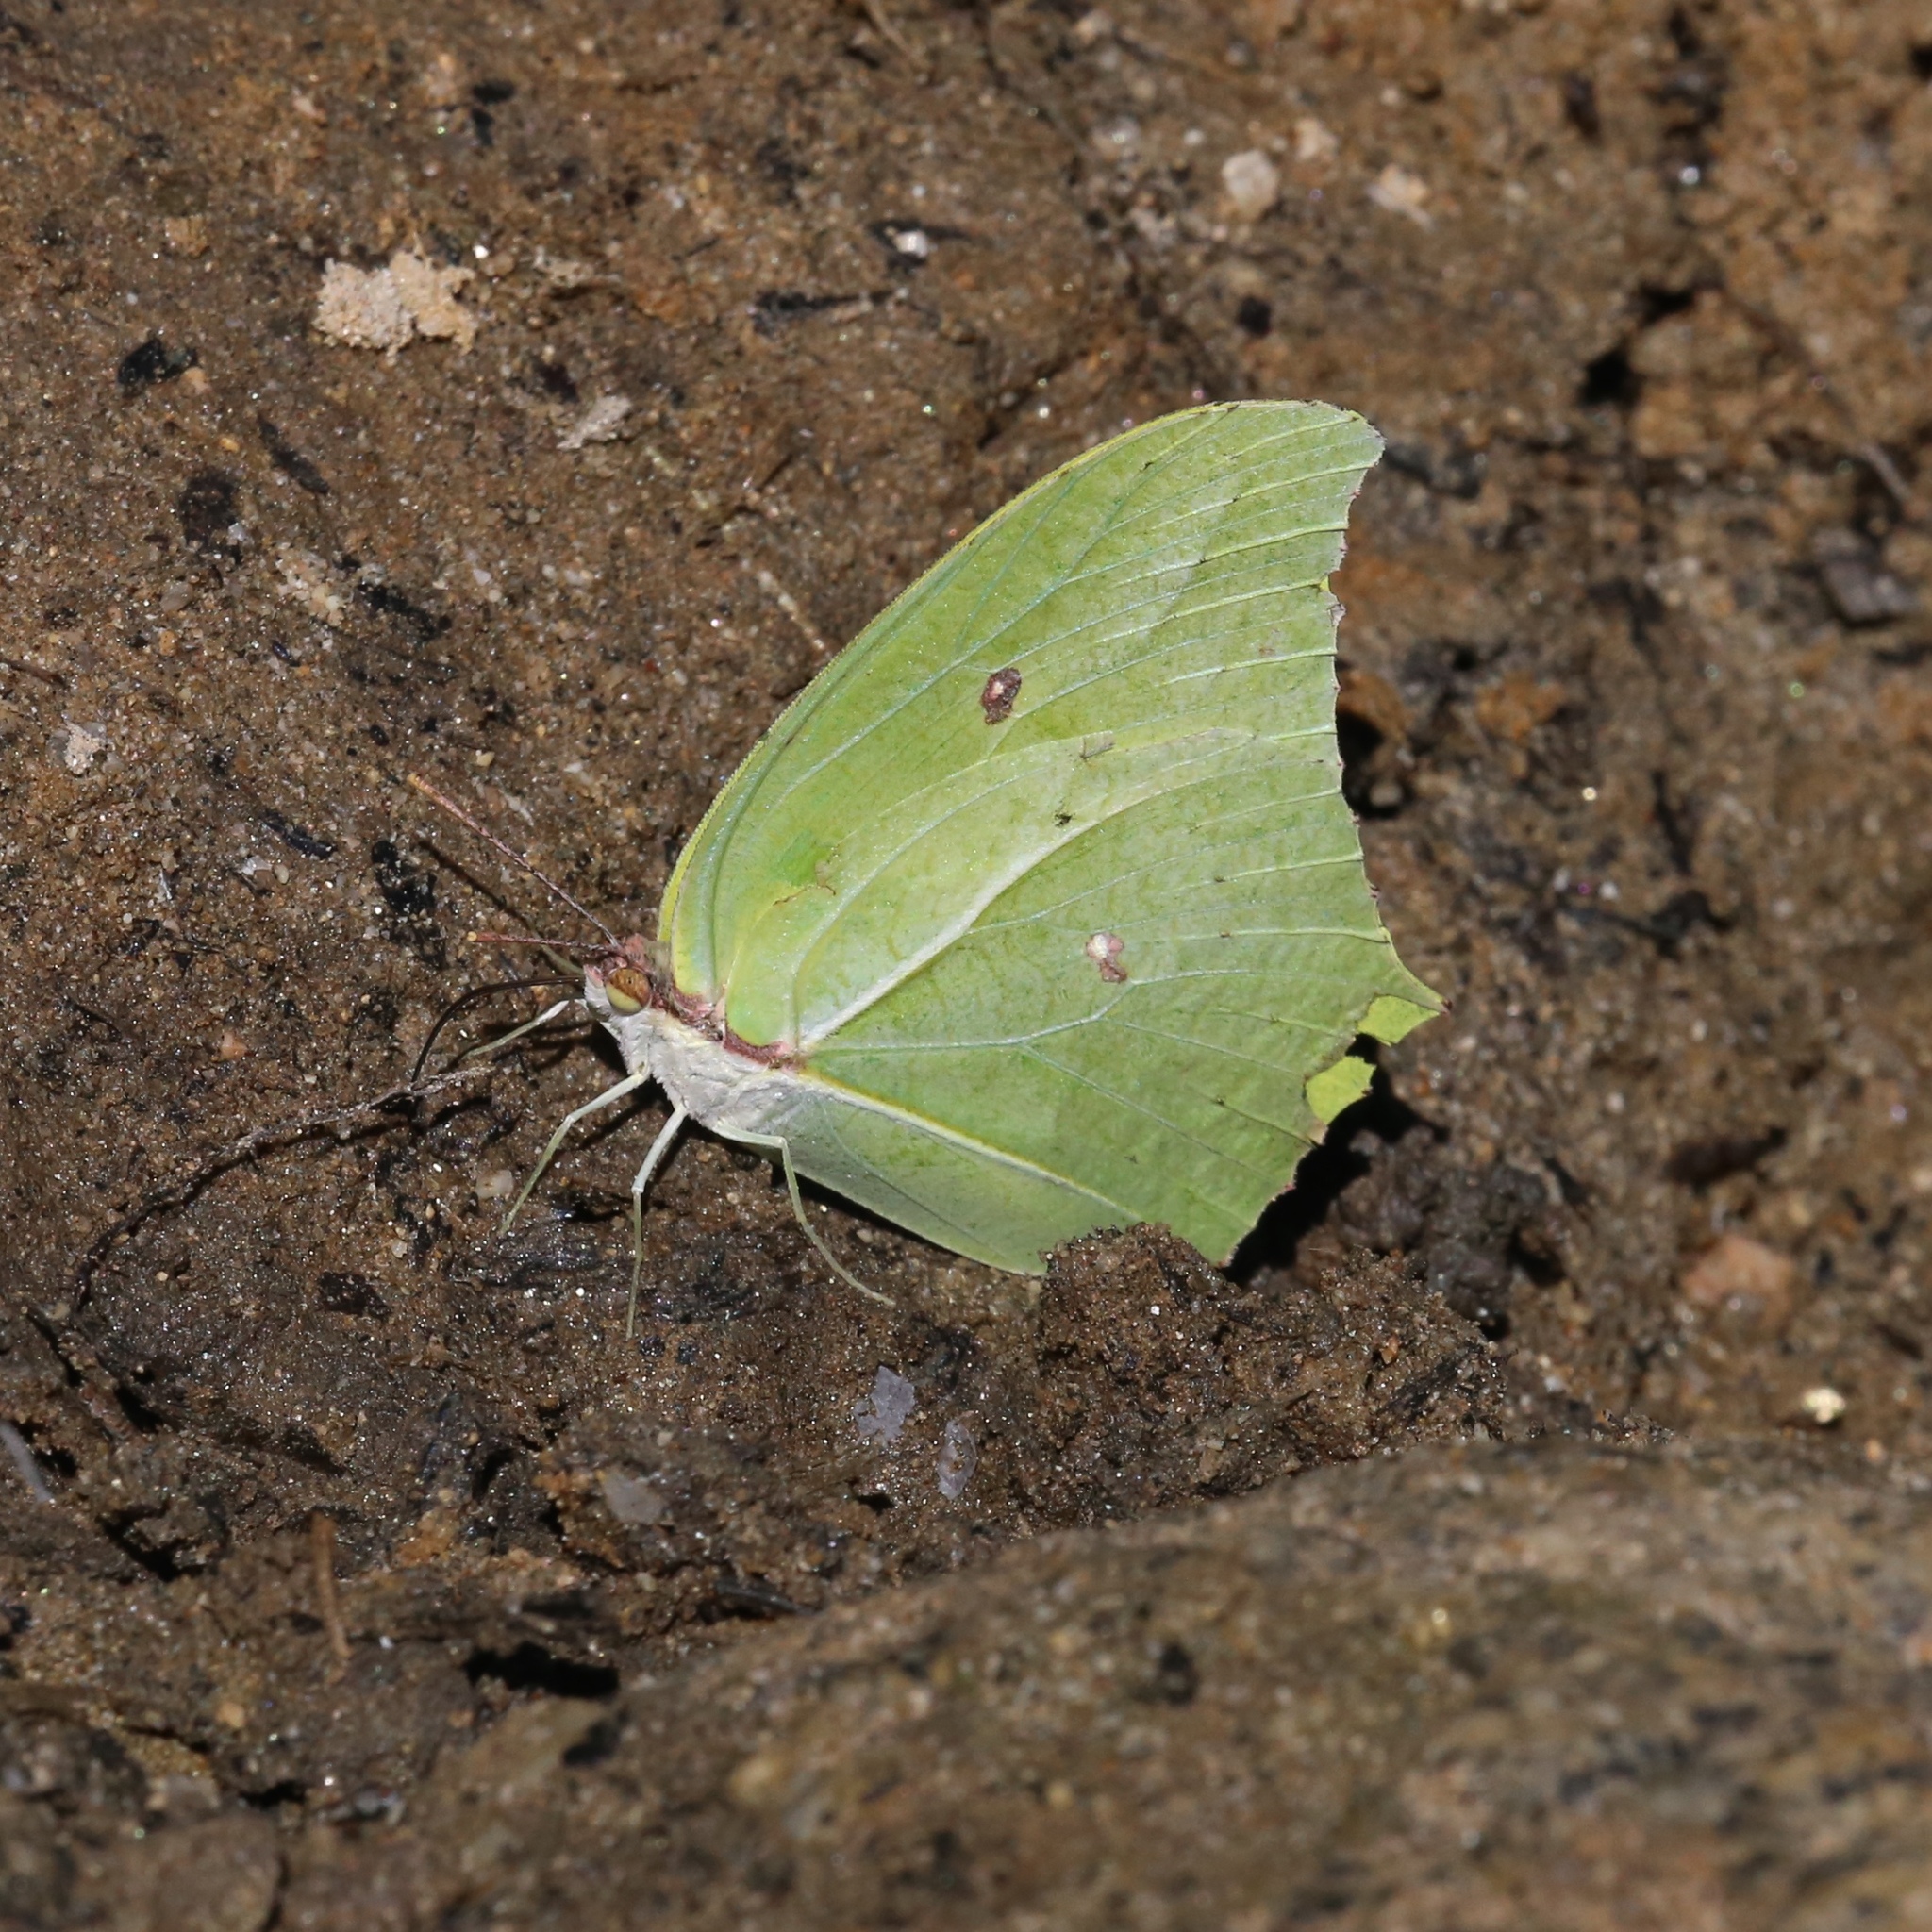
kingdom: Animalia
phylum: Arthropoda
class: Insecta
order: Lepidoptera
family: Pieridae
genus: Anteos
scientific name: Anteos maerula
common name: Angled sulphur
